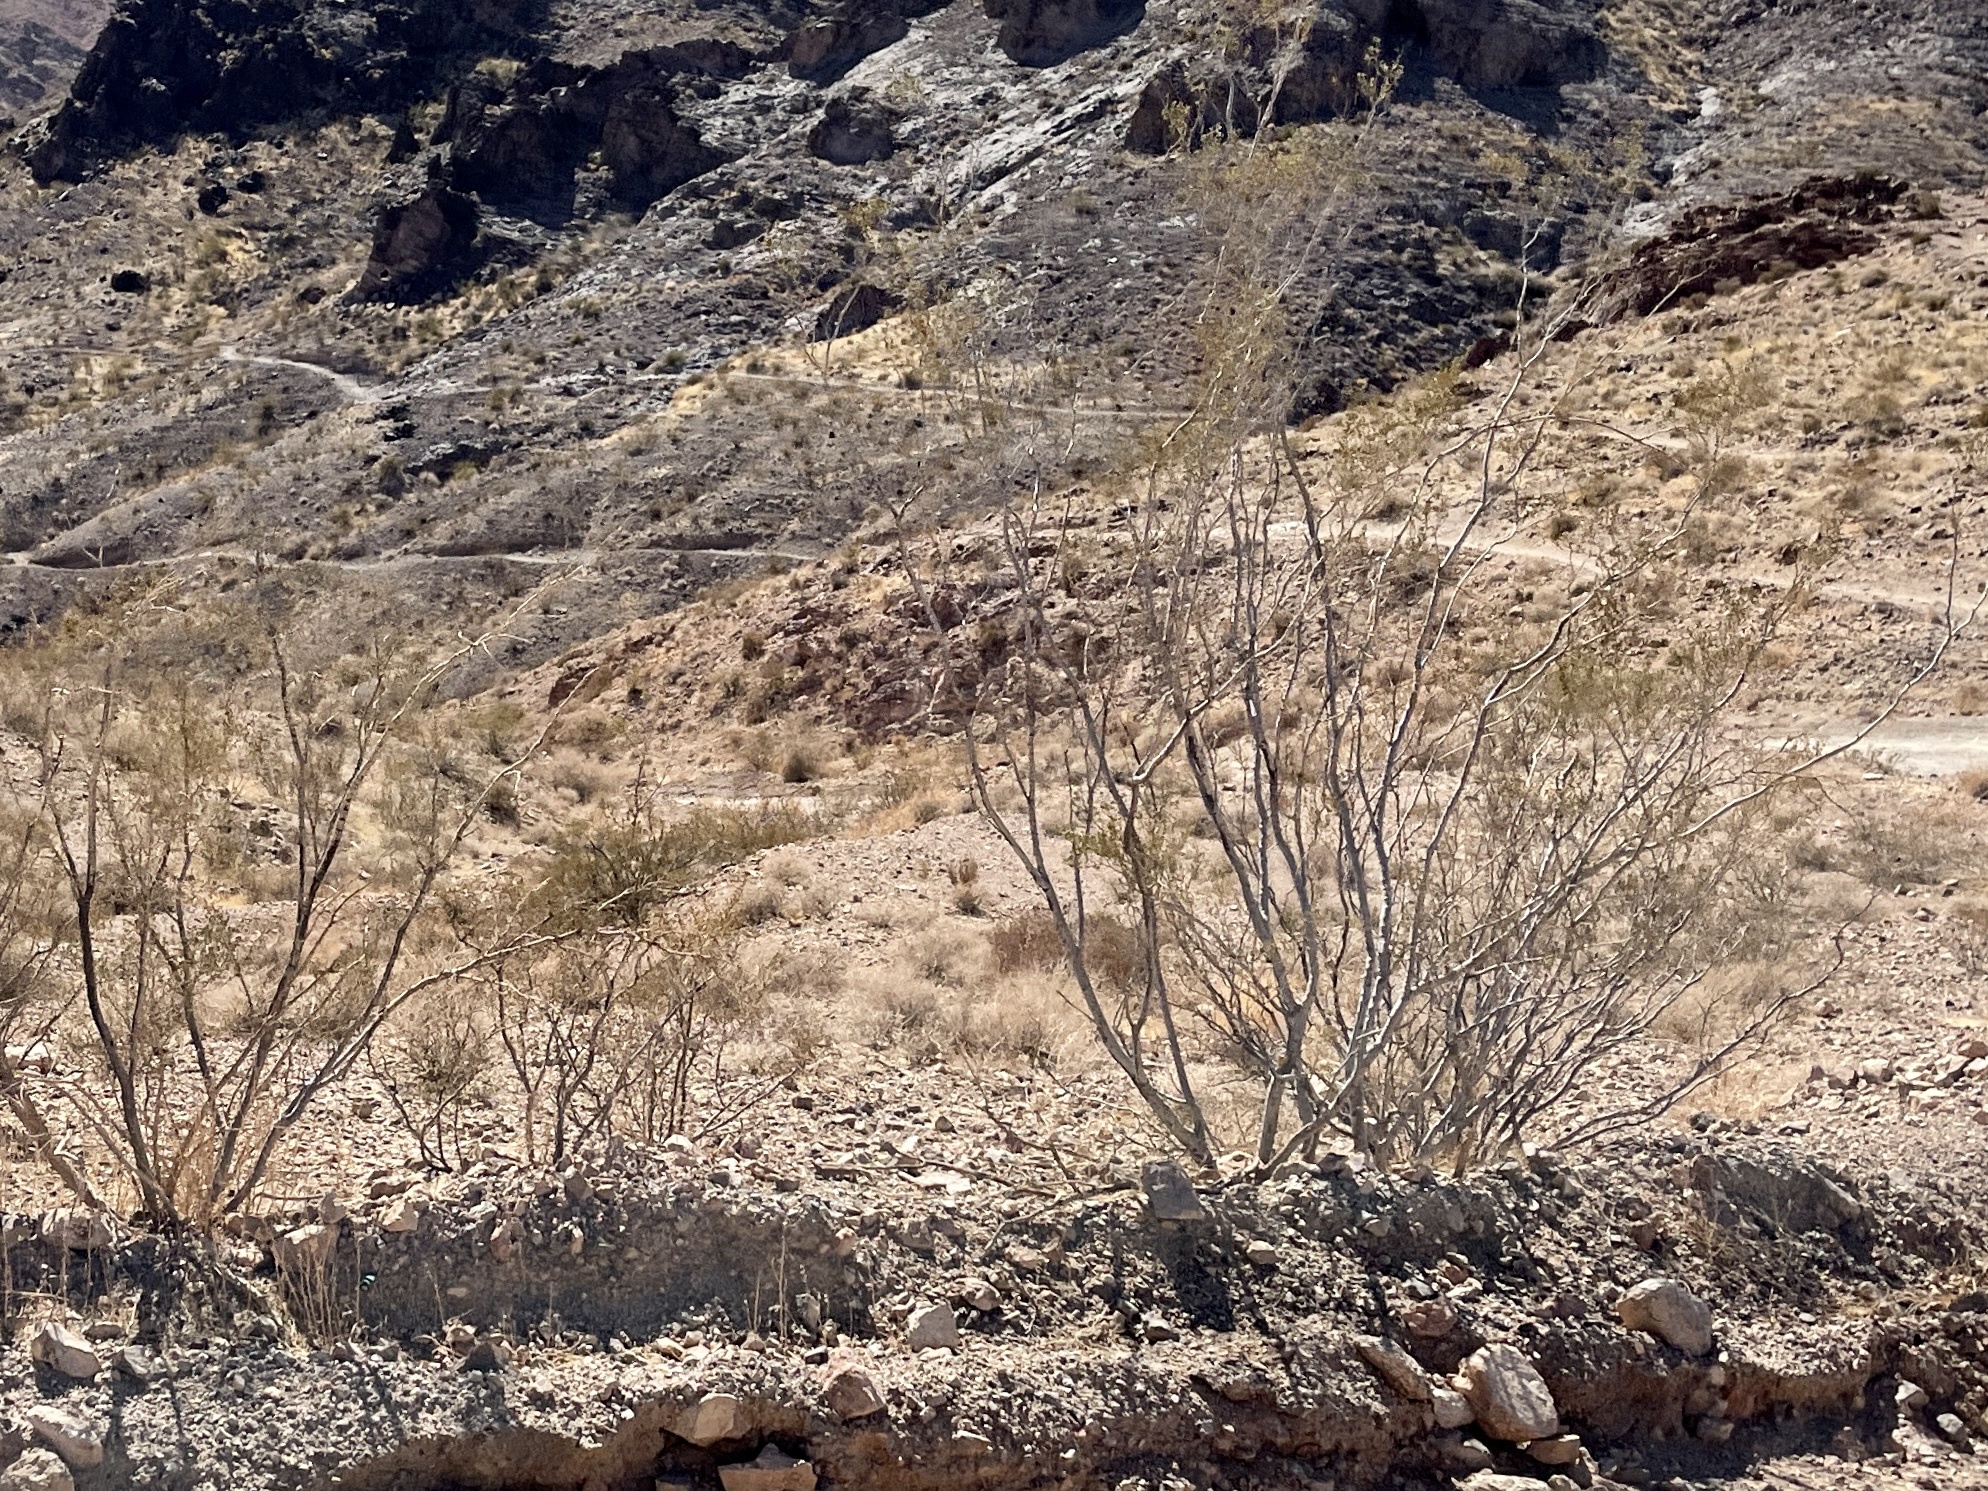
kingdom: Plantae
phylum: Tracheophyta
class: Magnoliopsida
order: Zygophyllales
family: Zygophyllaceae
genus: Larrea
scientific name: Larrea tridentata
